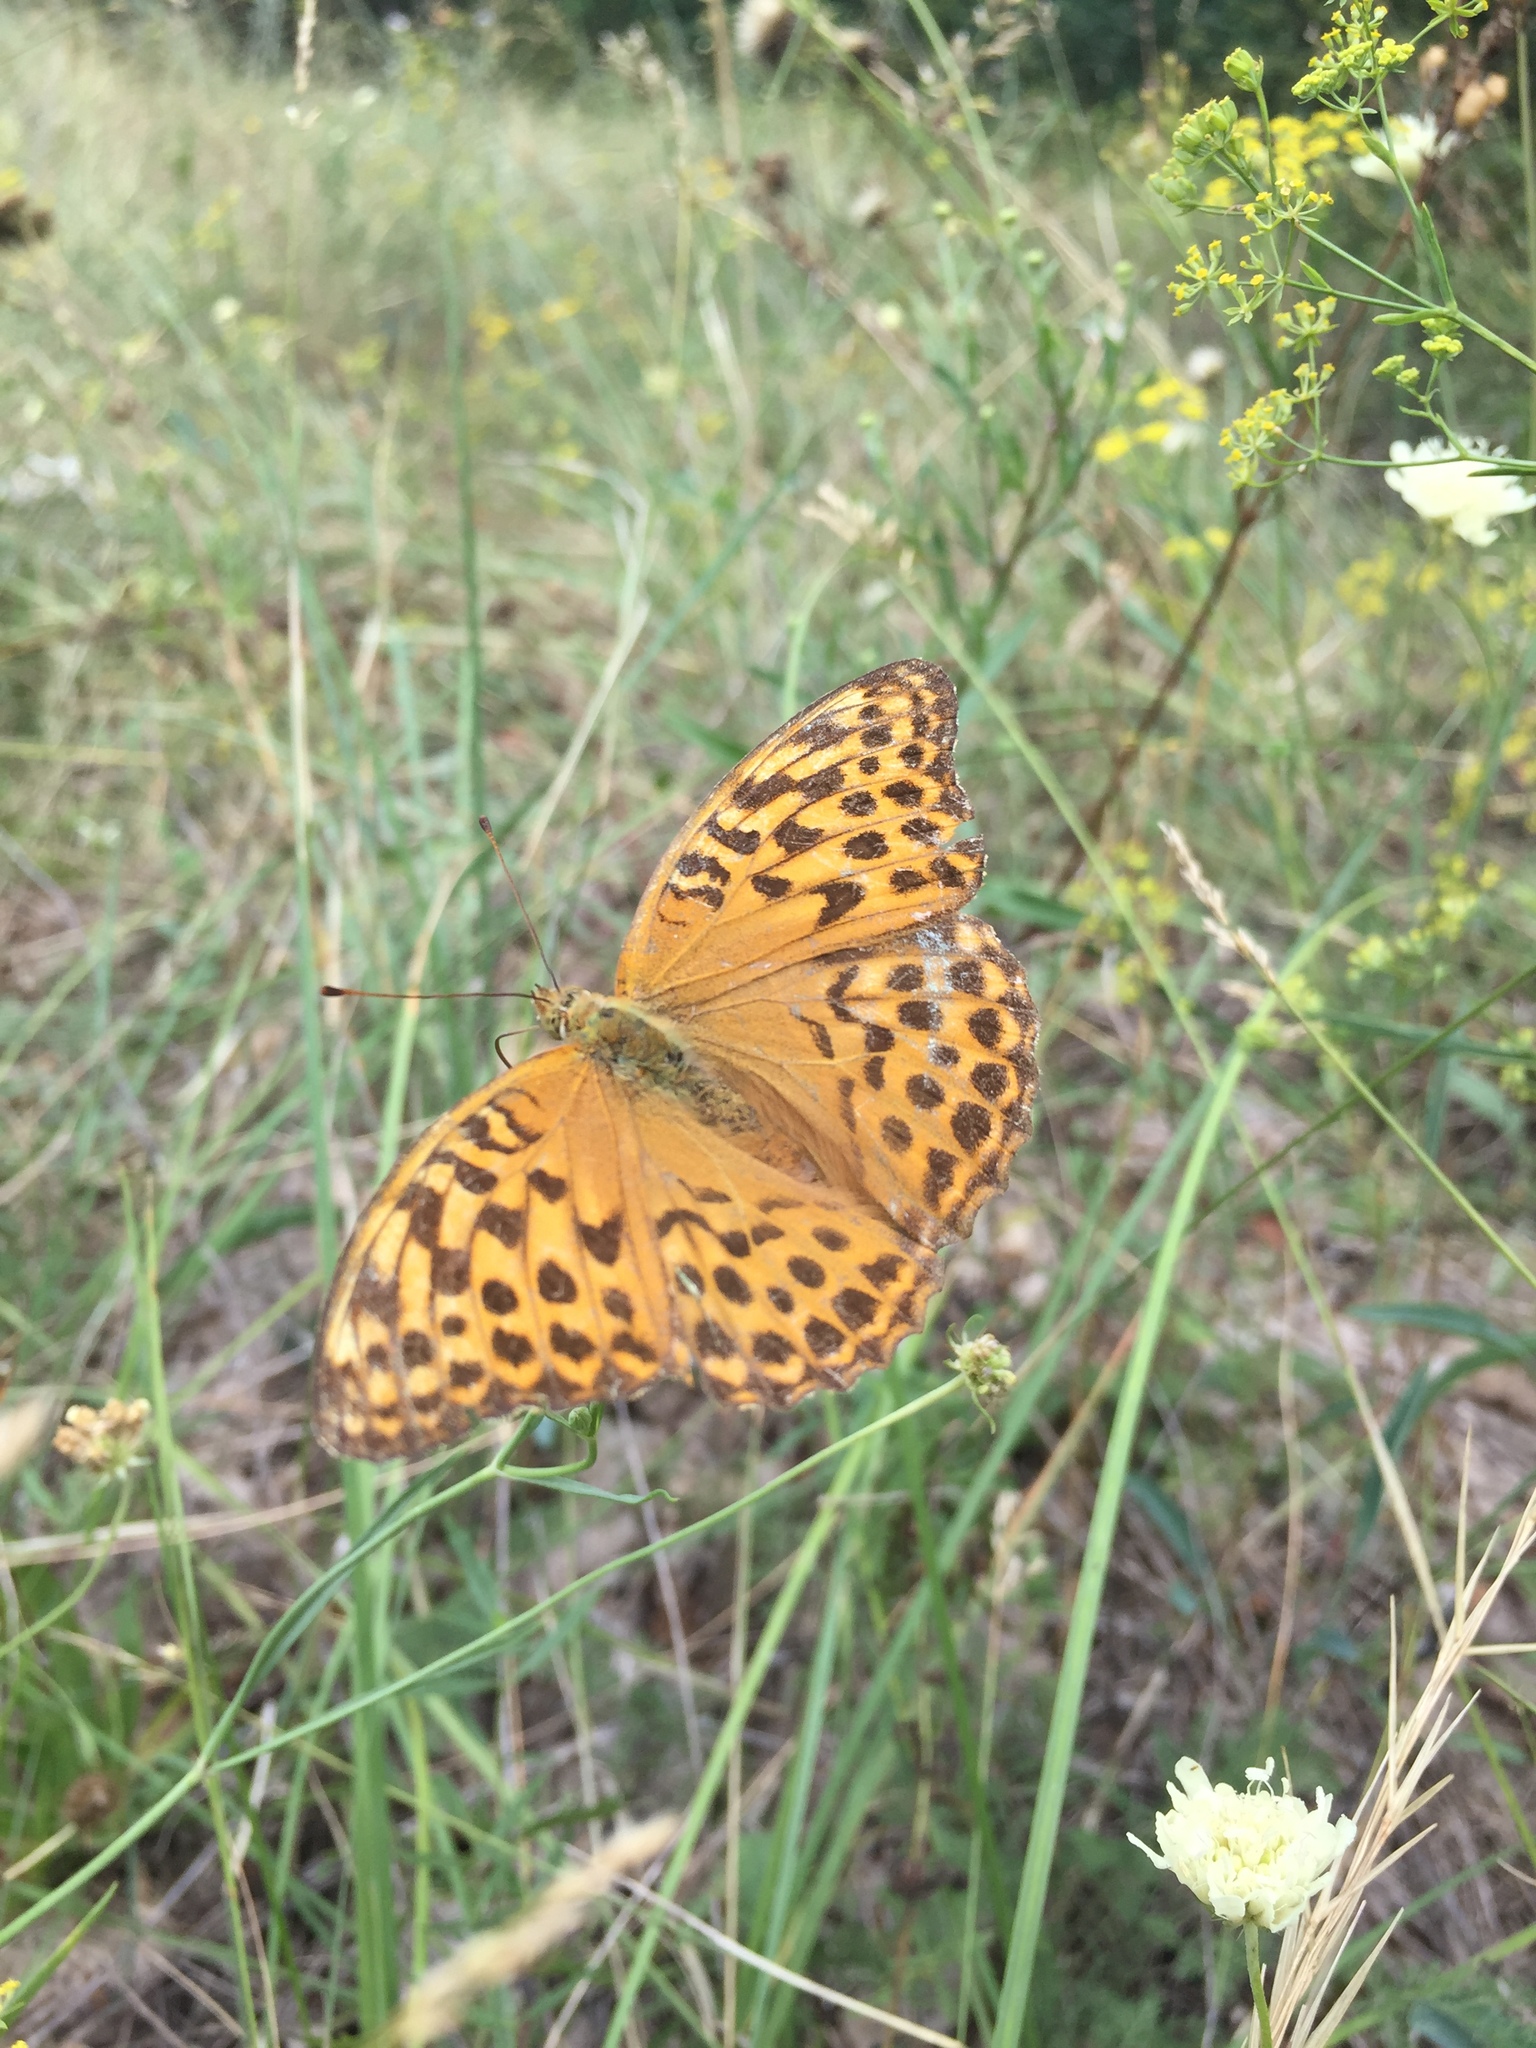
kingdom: Animalia
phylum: Arthropoda
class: Insecta
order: Lepidoptera
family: Nymphalidae
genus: Argynnis
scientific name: Argynnis paphia
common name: Silver-washed fritillary
